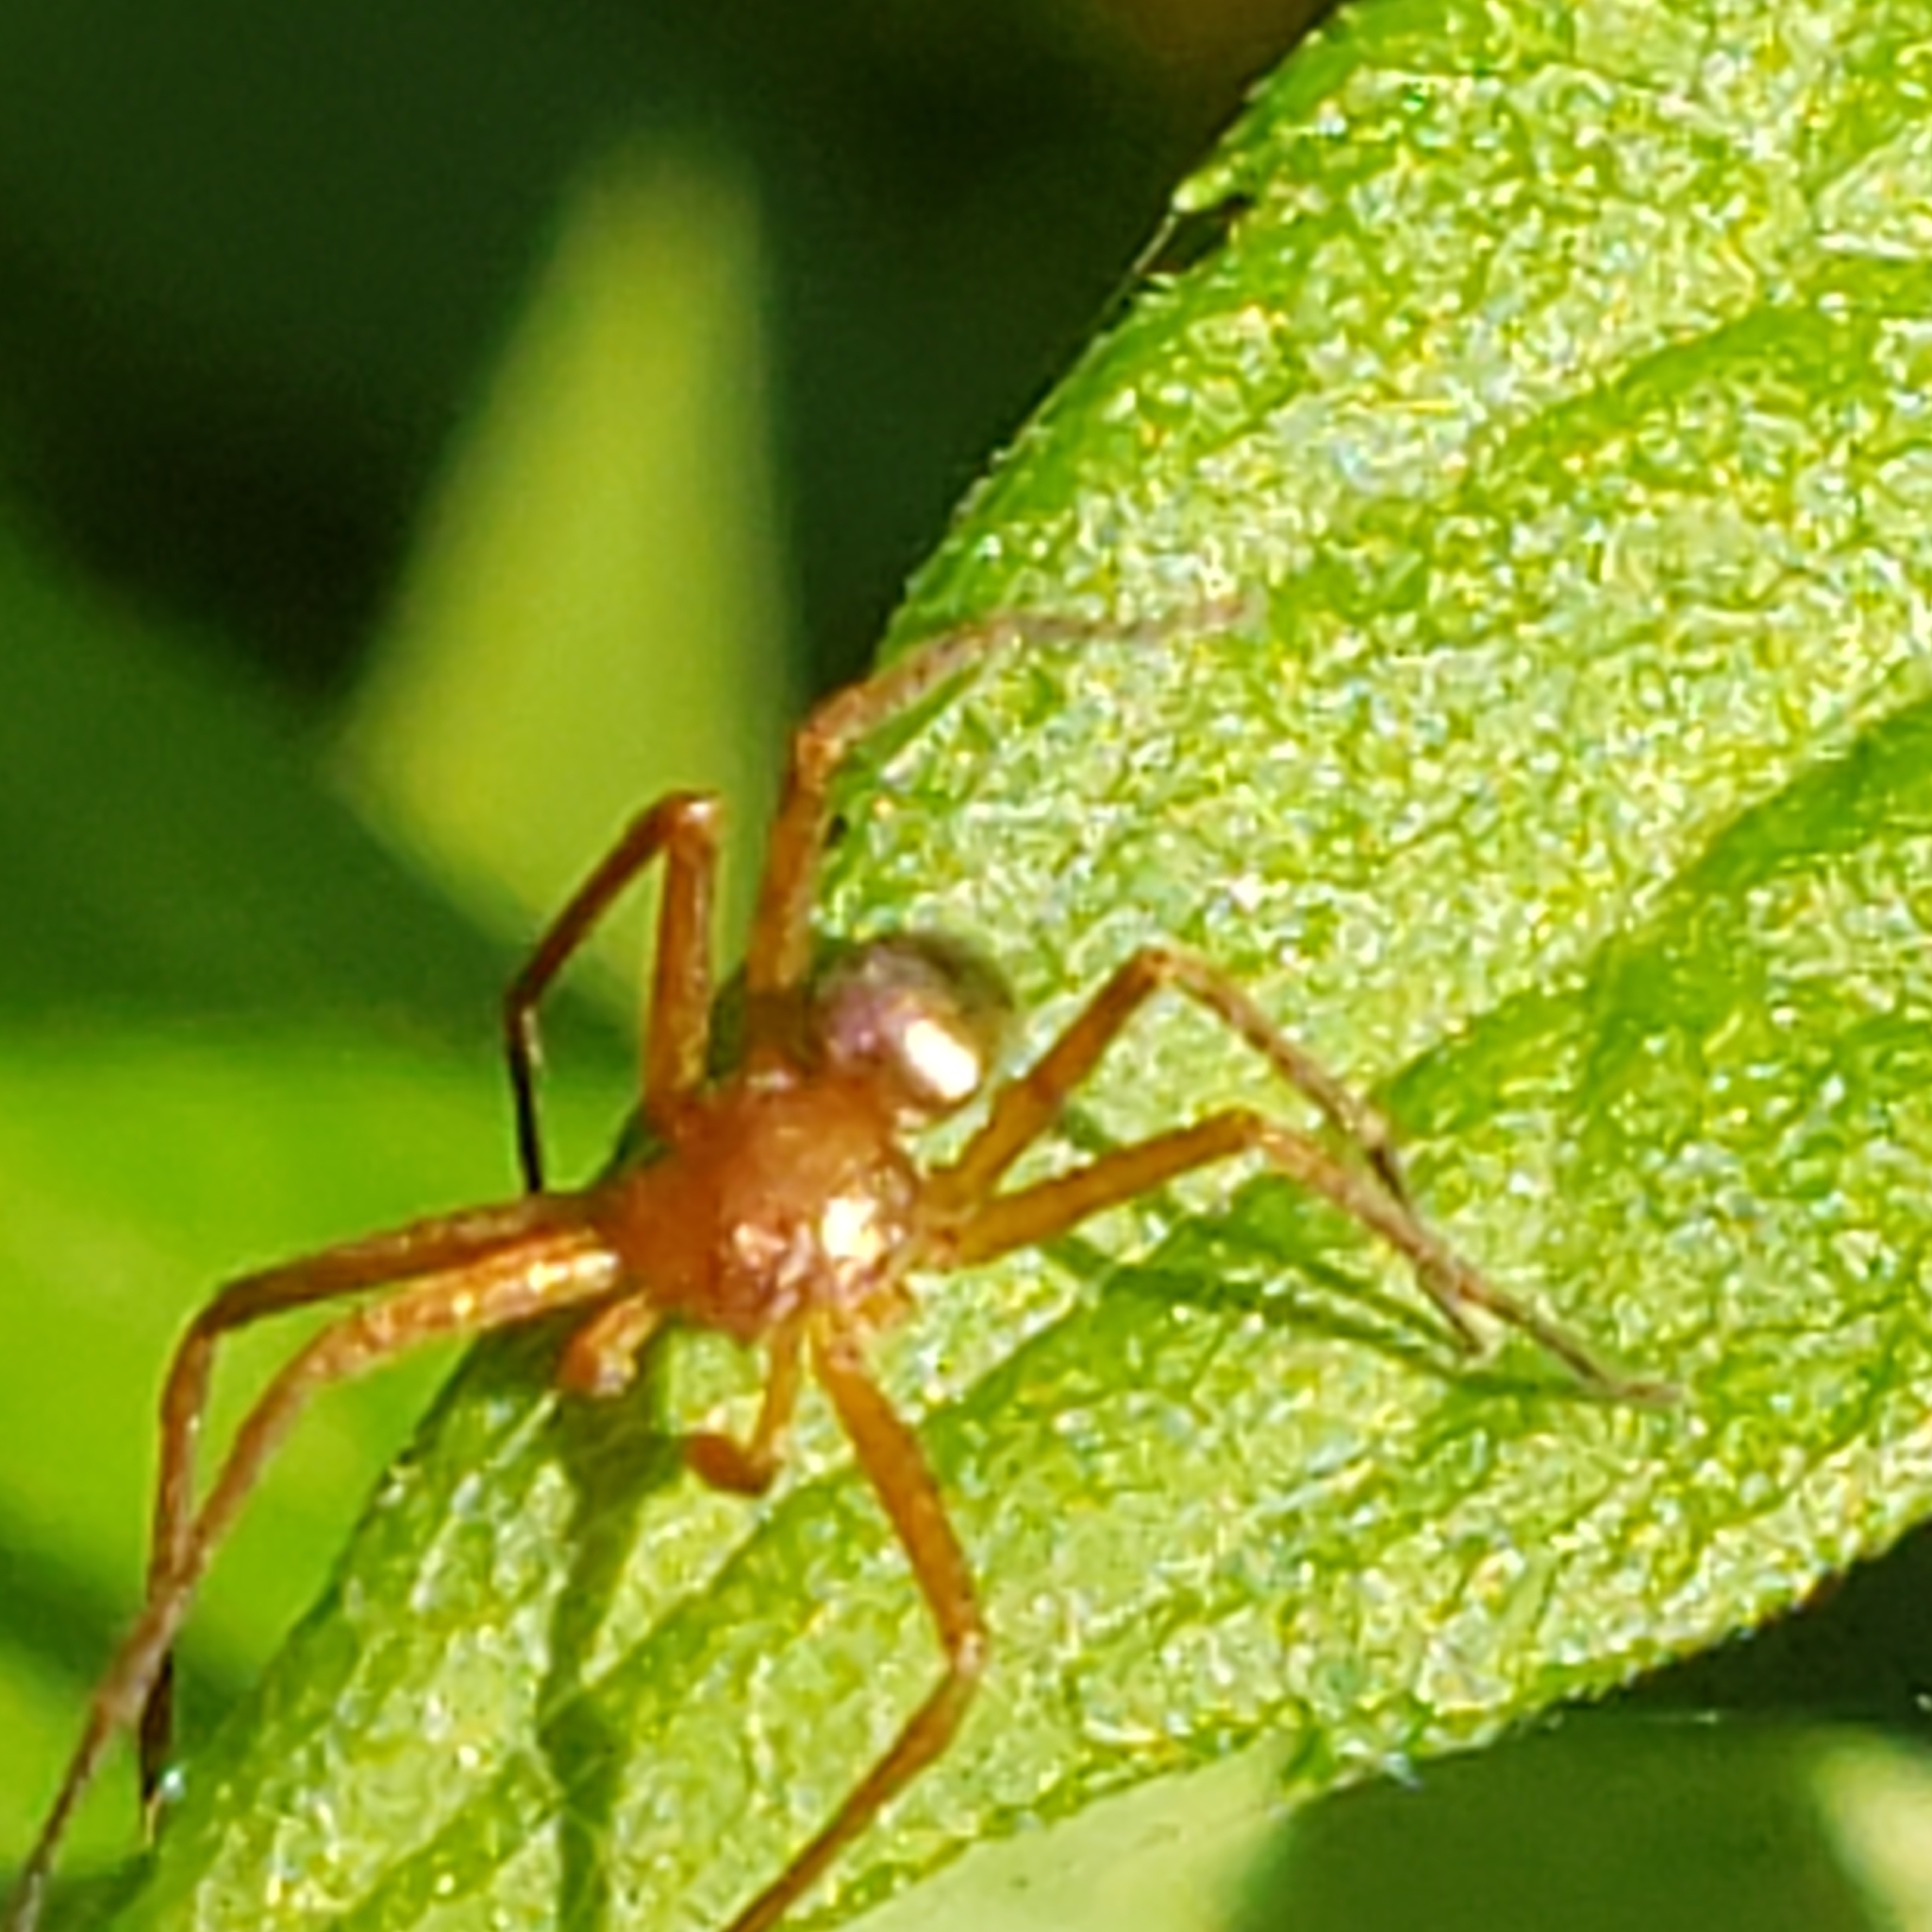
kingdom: Animalia
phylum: Arthropoda
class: Arachnida
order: Araneae
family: Philodromidae
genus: Philodromus
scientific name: Philodromus marxi
